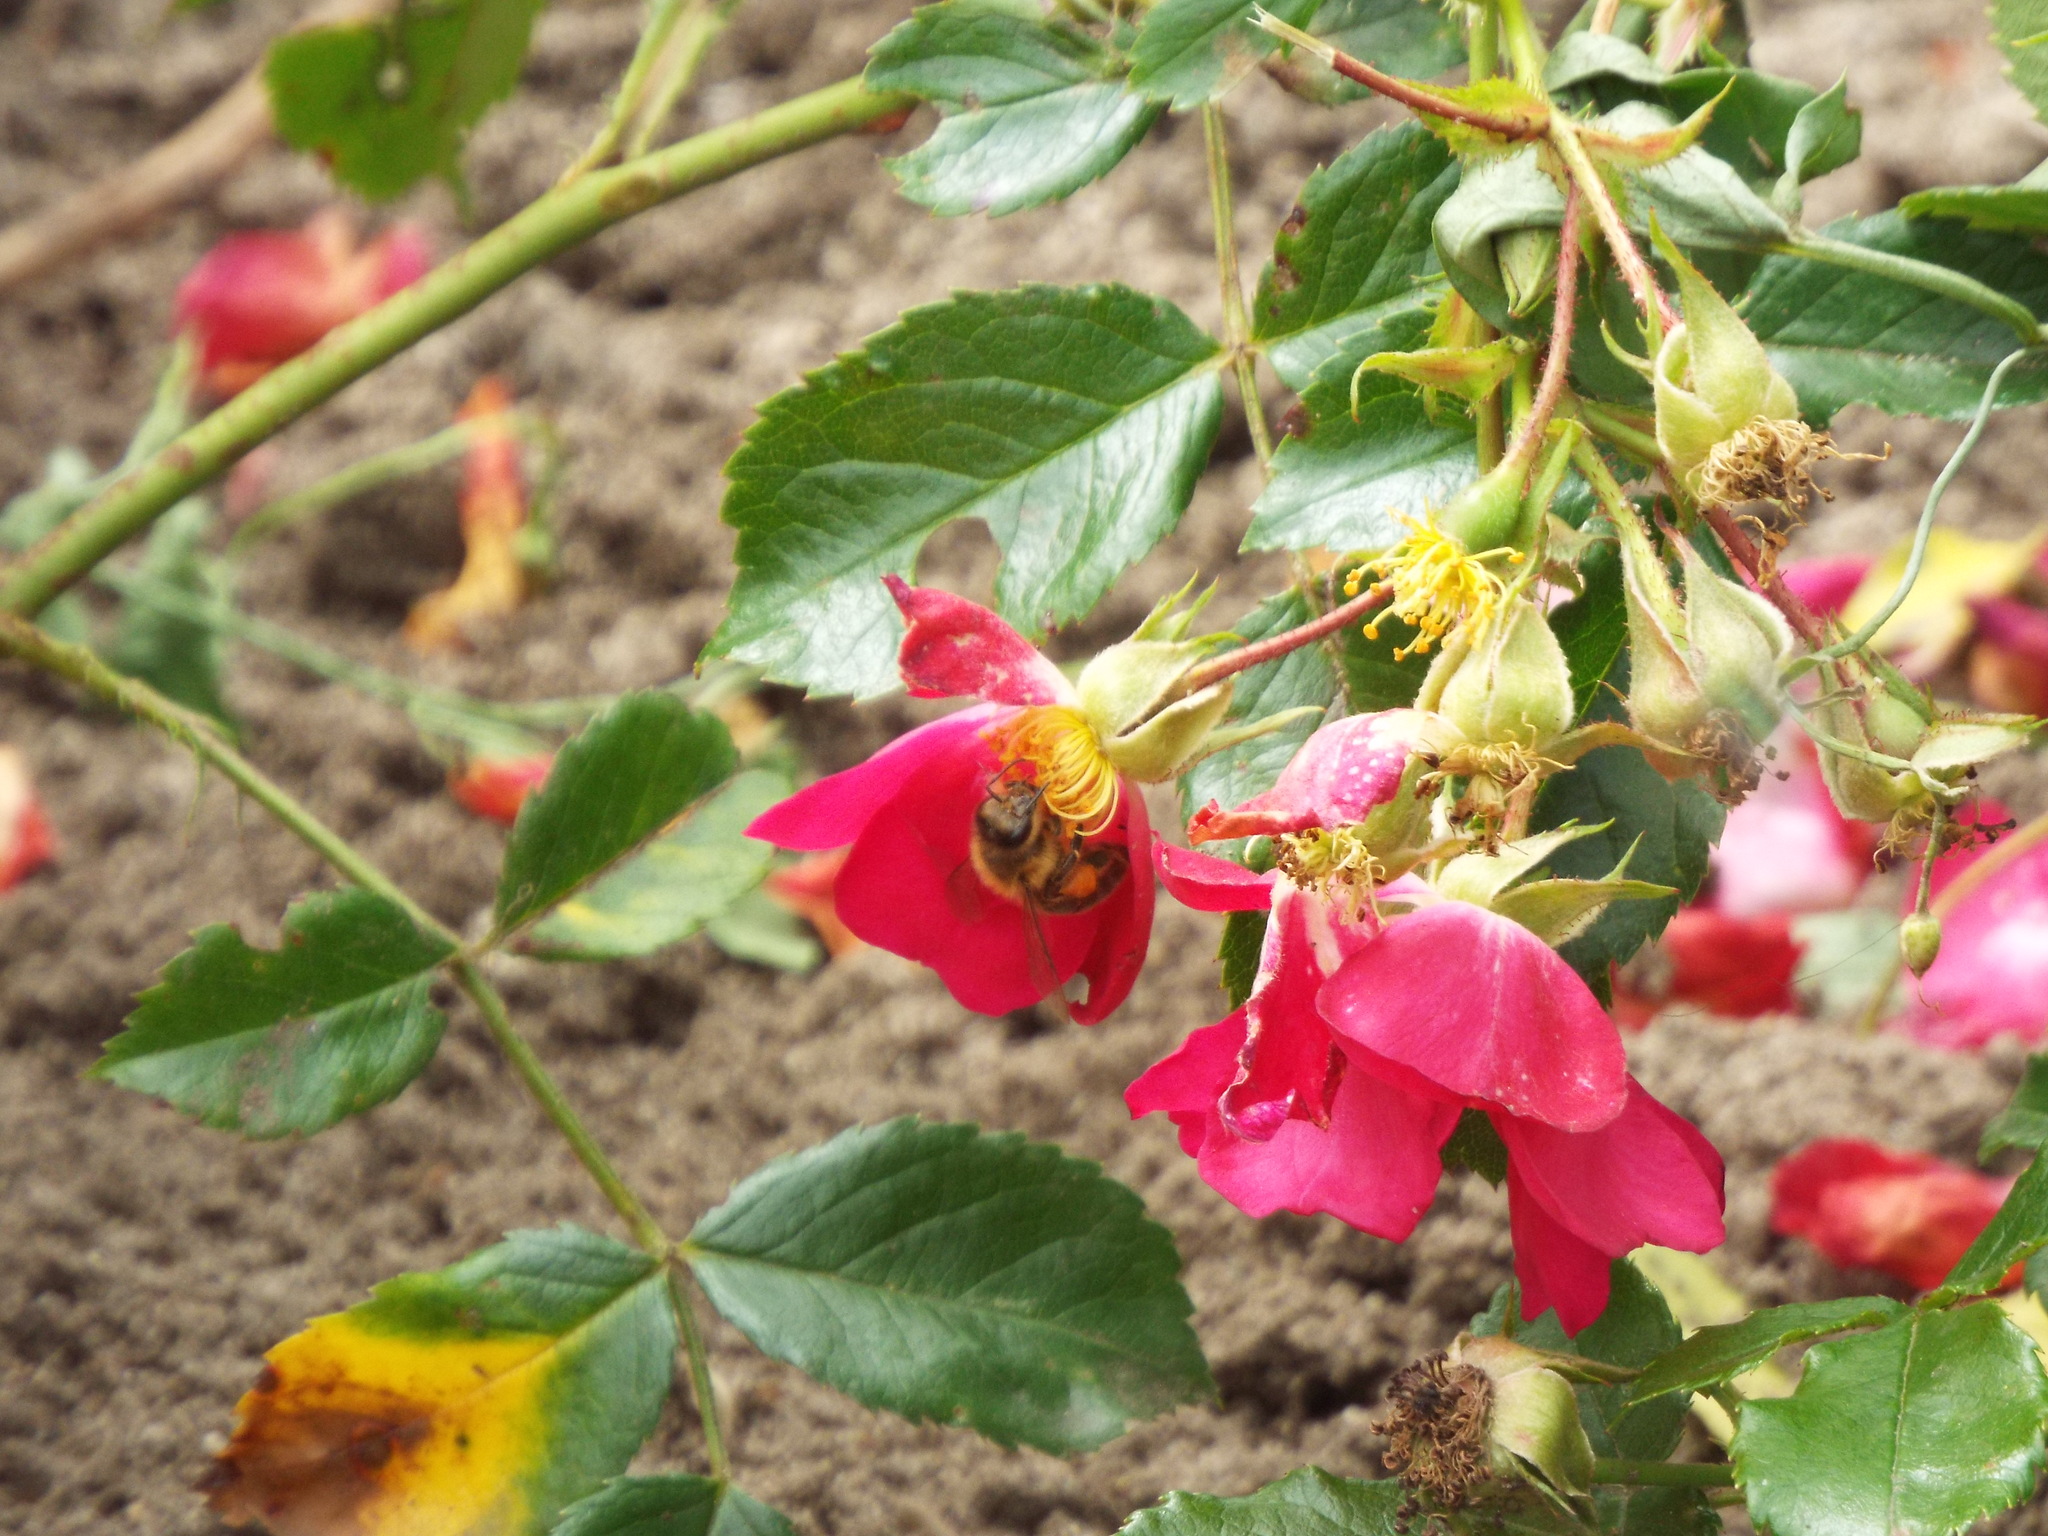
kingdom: Animalia
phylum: Arthropoda
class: Insecta
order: Hymenoptera
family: Apidae
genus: Apis
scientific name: Apis mellifera
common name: Honey bee
